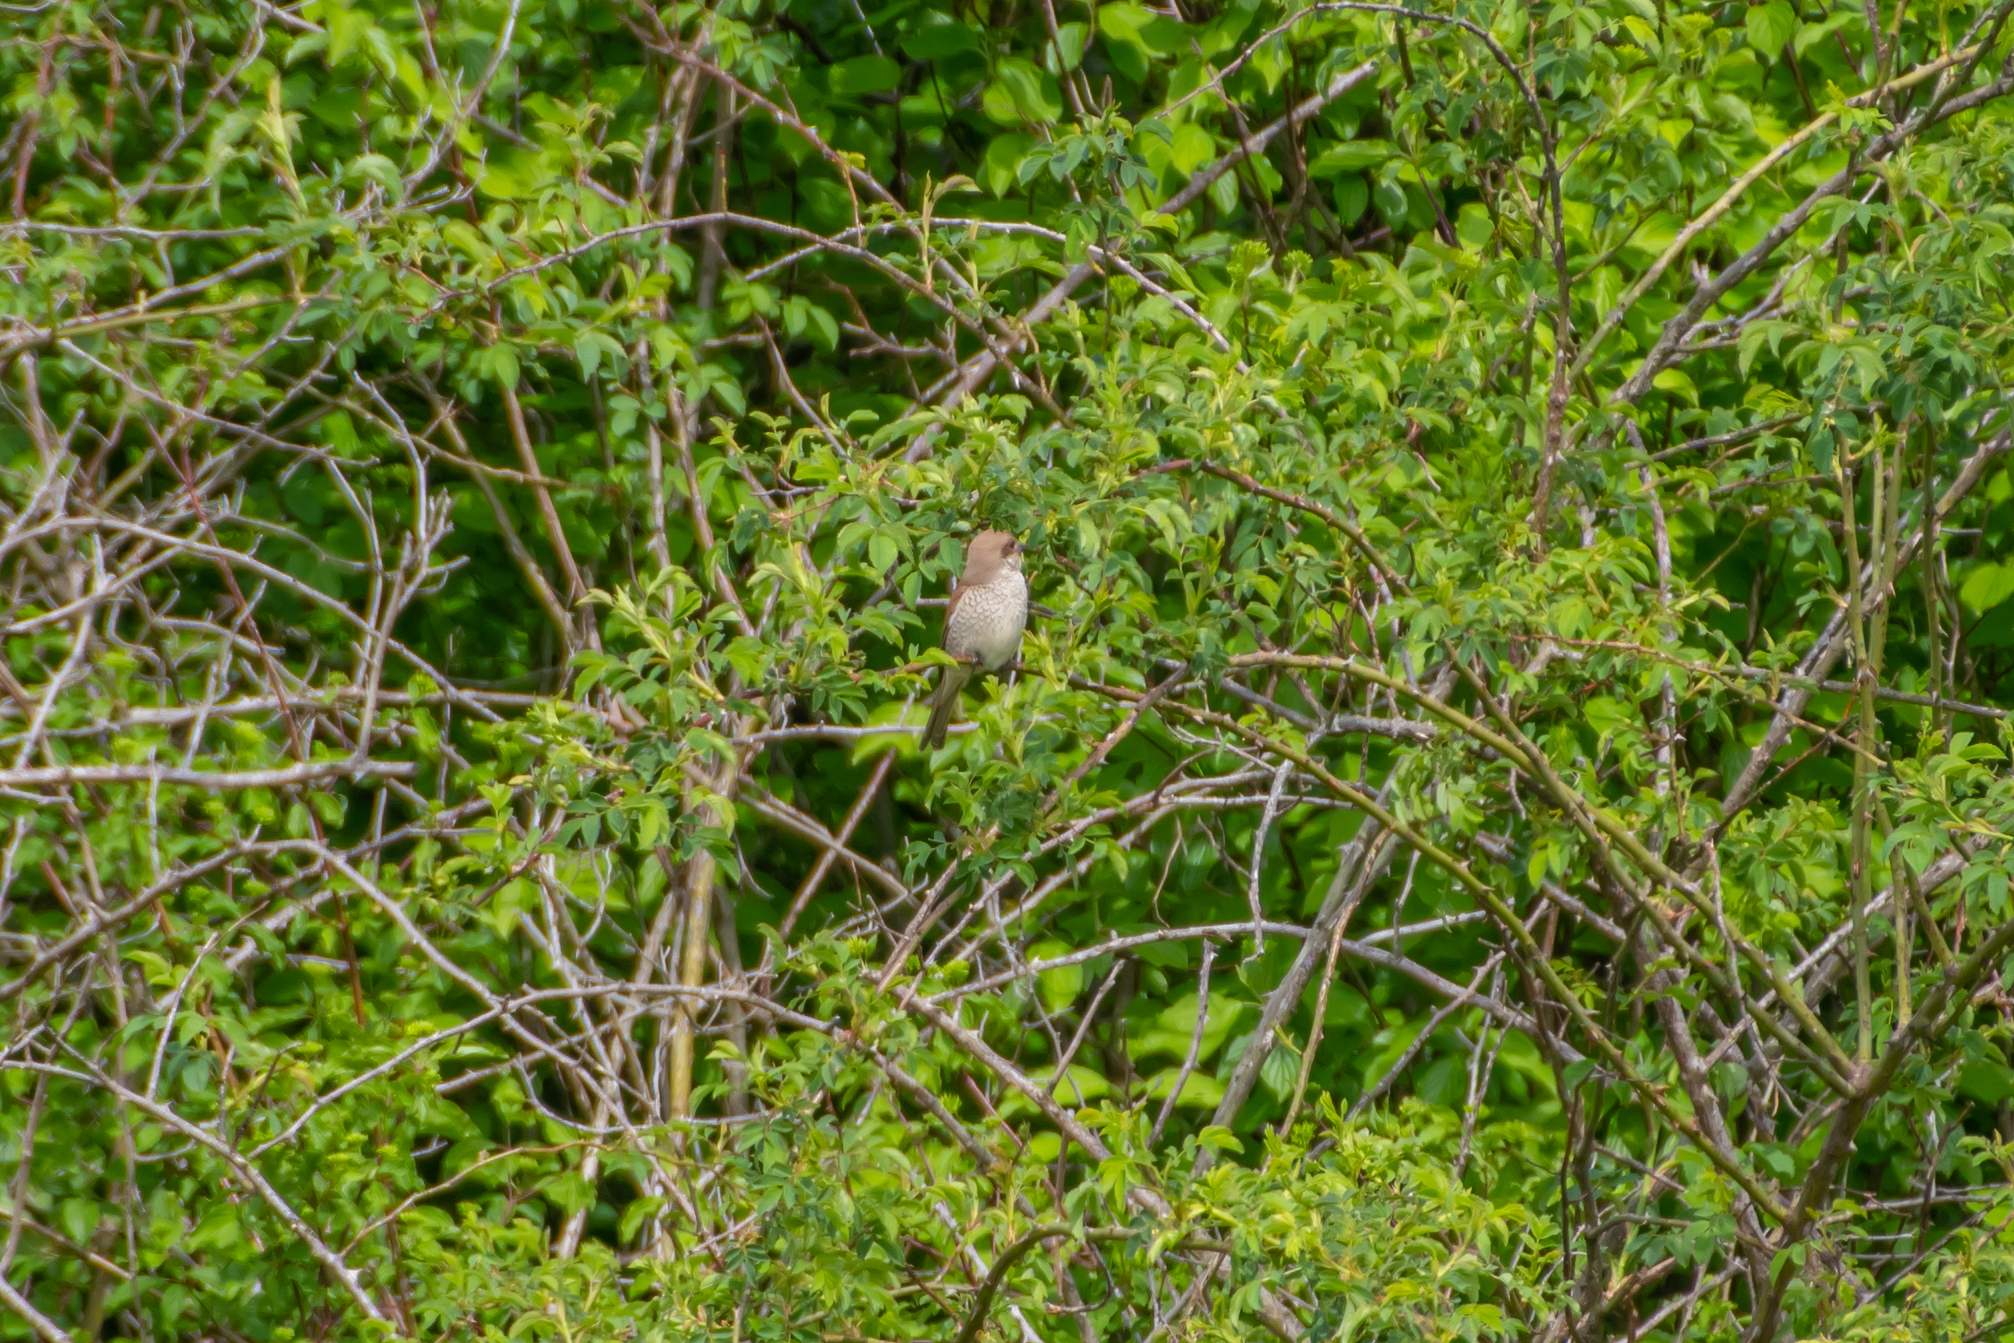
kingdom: Animalia
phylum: Chordata
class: Aves
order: Passeriformes
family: Laniidae
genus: Lanius
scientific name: Lanius collurio
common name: Red-backed shrike
